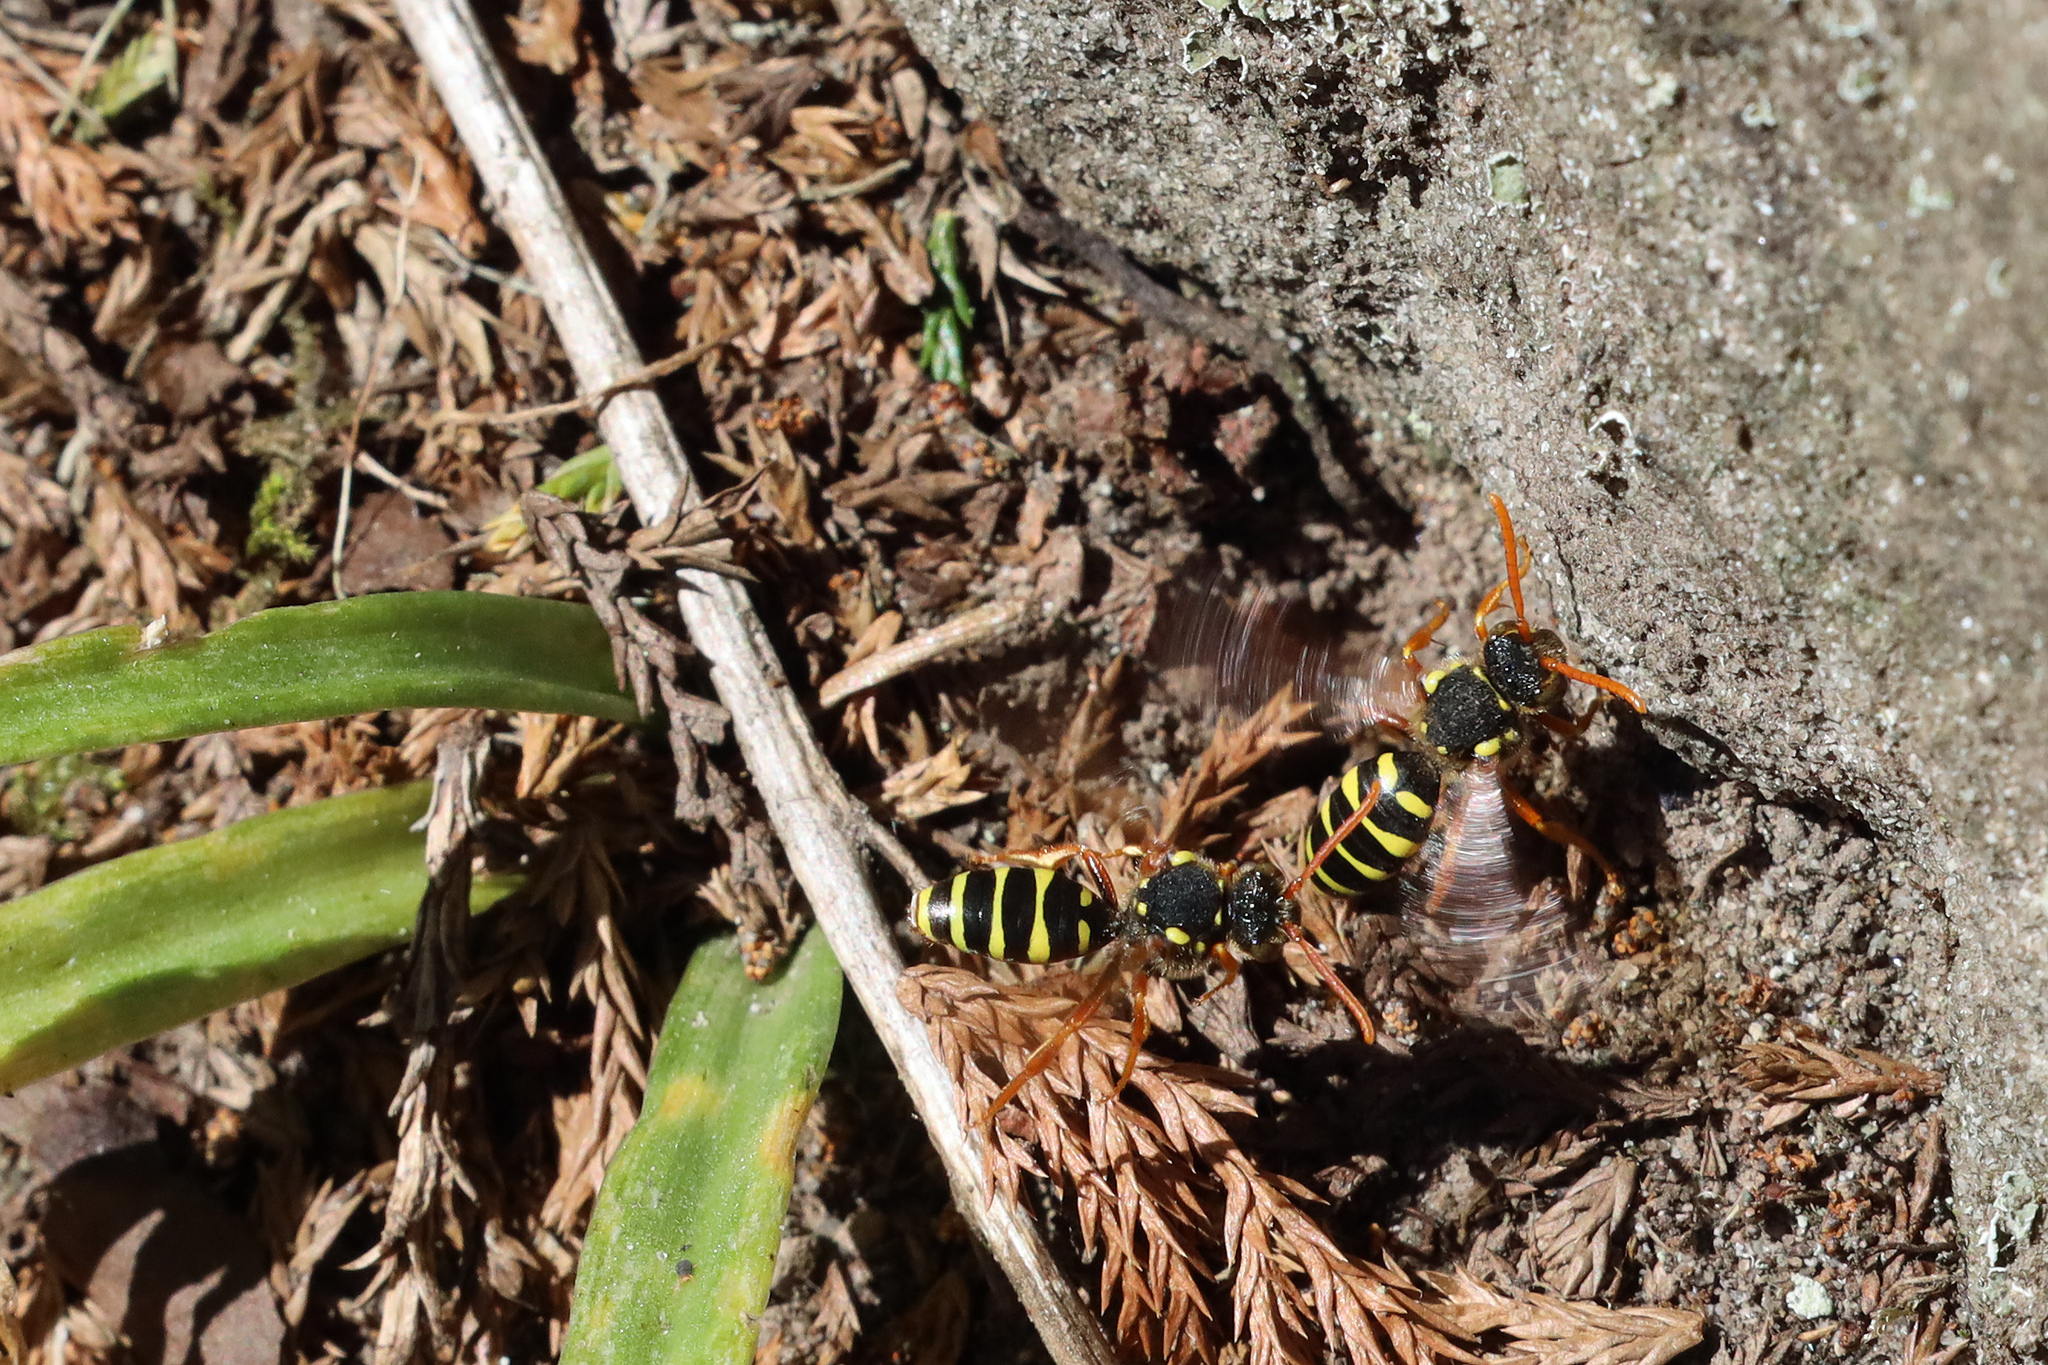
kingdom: Animalia
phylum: Arthropoda
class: Insecta
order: Hymenoptera
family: Apidae
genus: Nomada
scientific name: Nomada goodeniana
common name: Gooden's nomad bee
